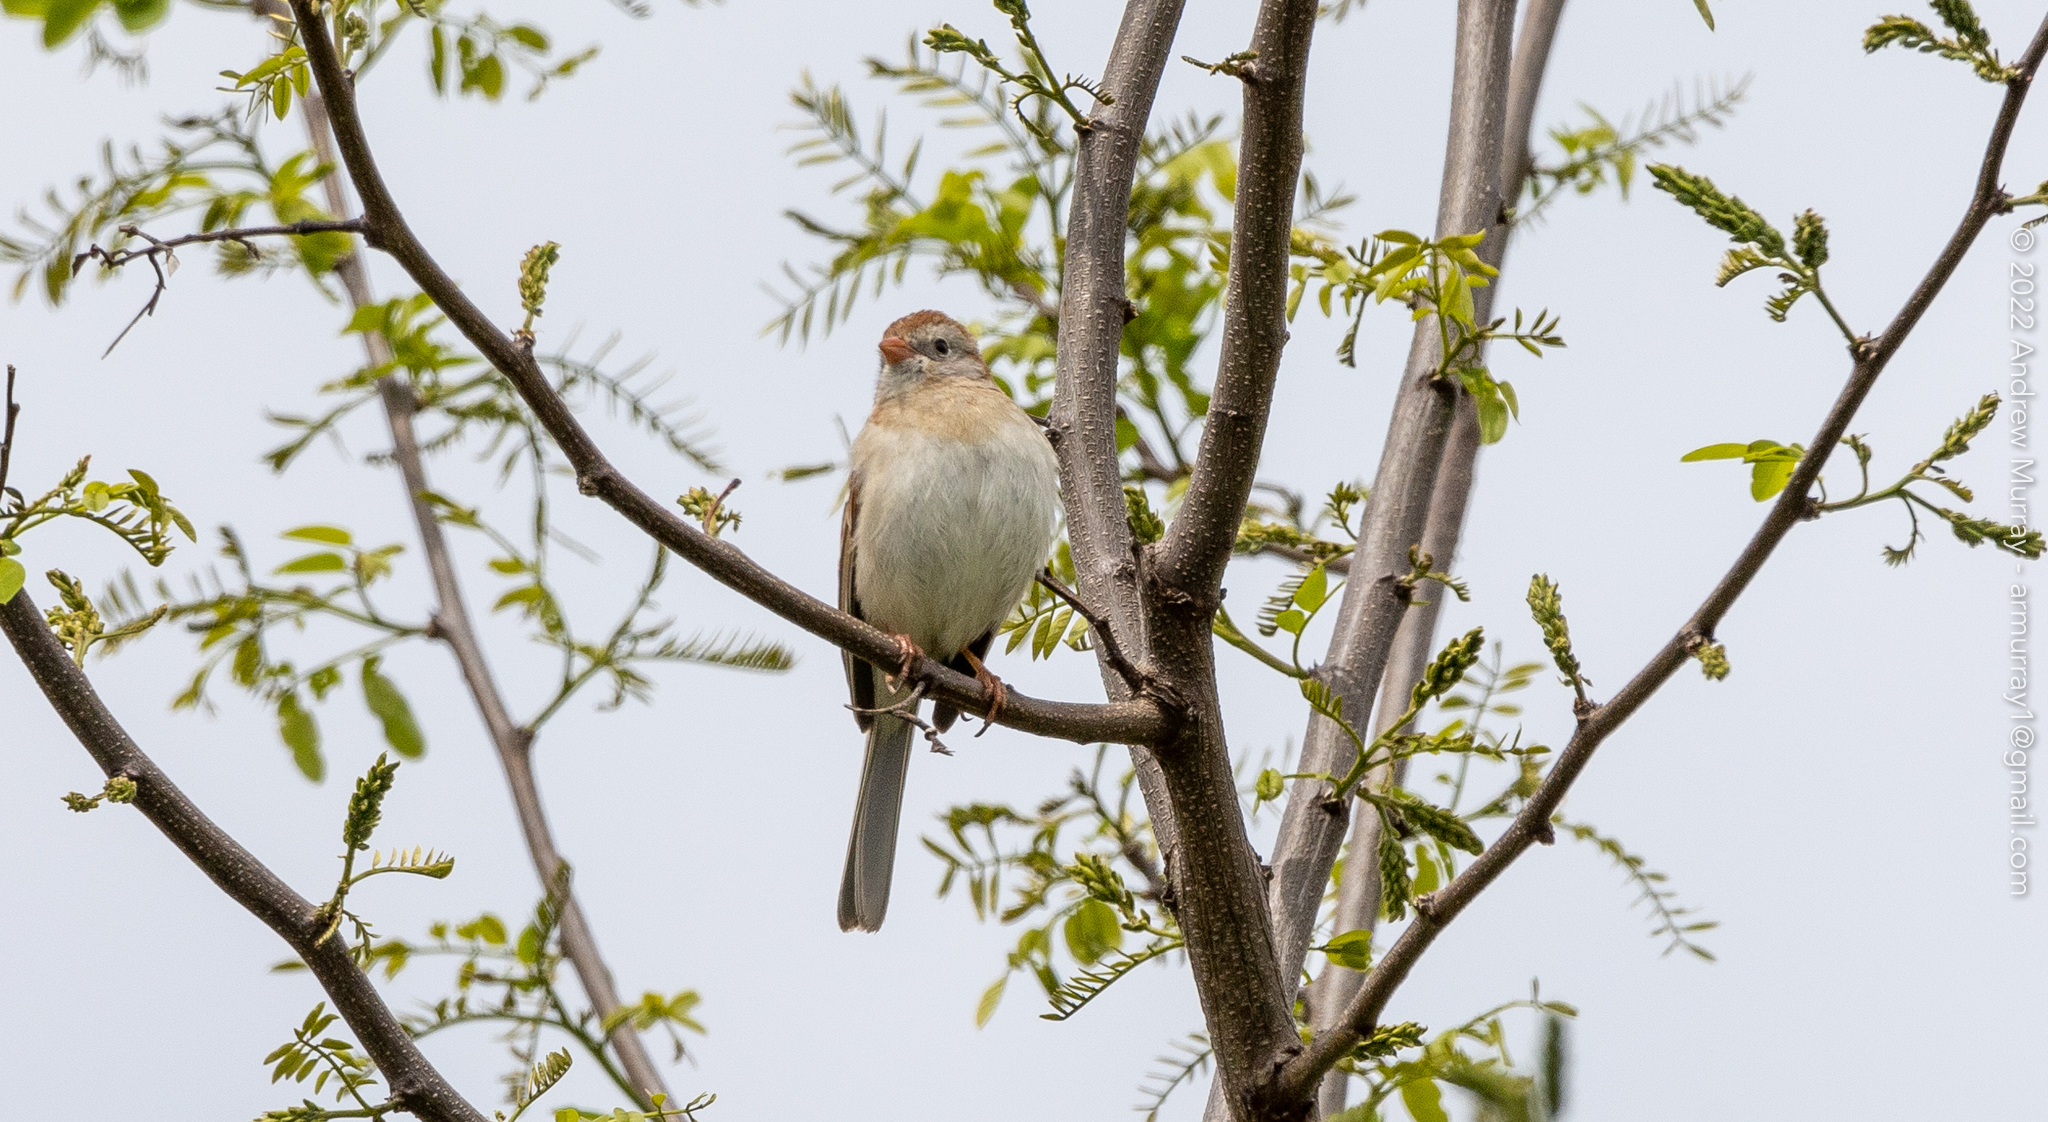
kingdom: Animalia
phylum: Chordata
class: Aves
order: Passeriformes
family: Passerellidae
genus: Spizella
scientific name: Spizella pusilla
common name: Field sparrow
